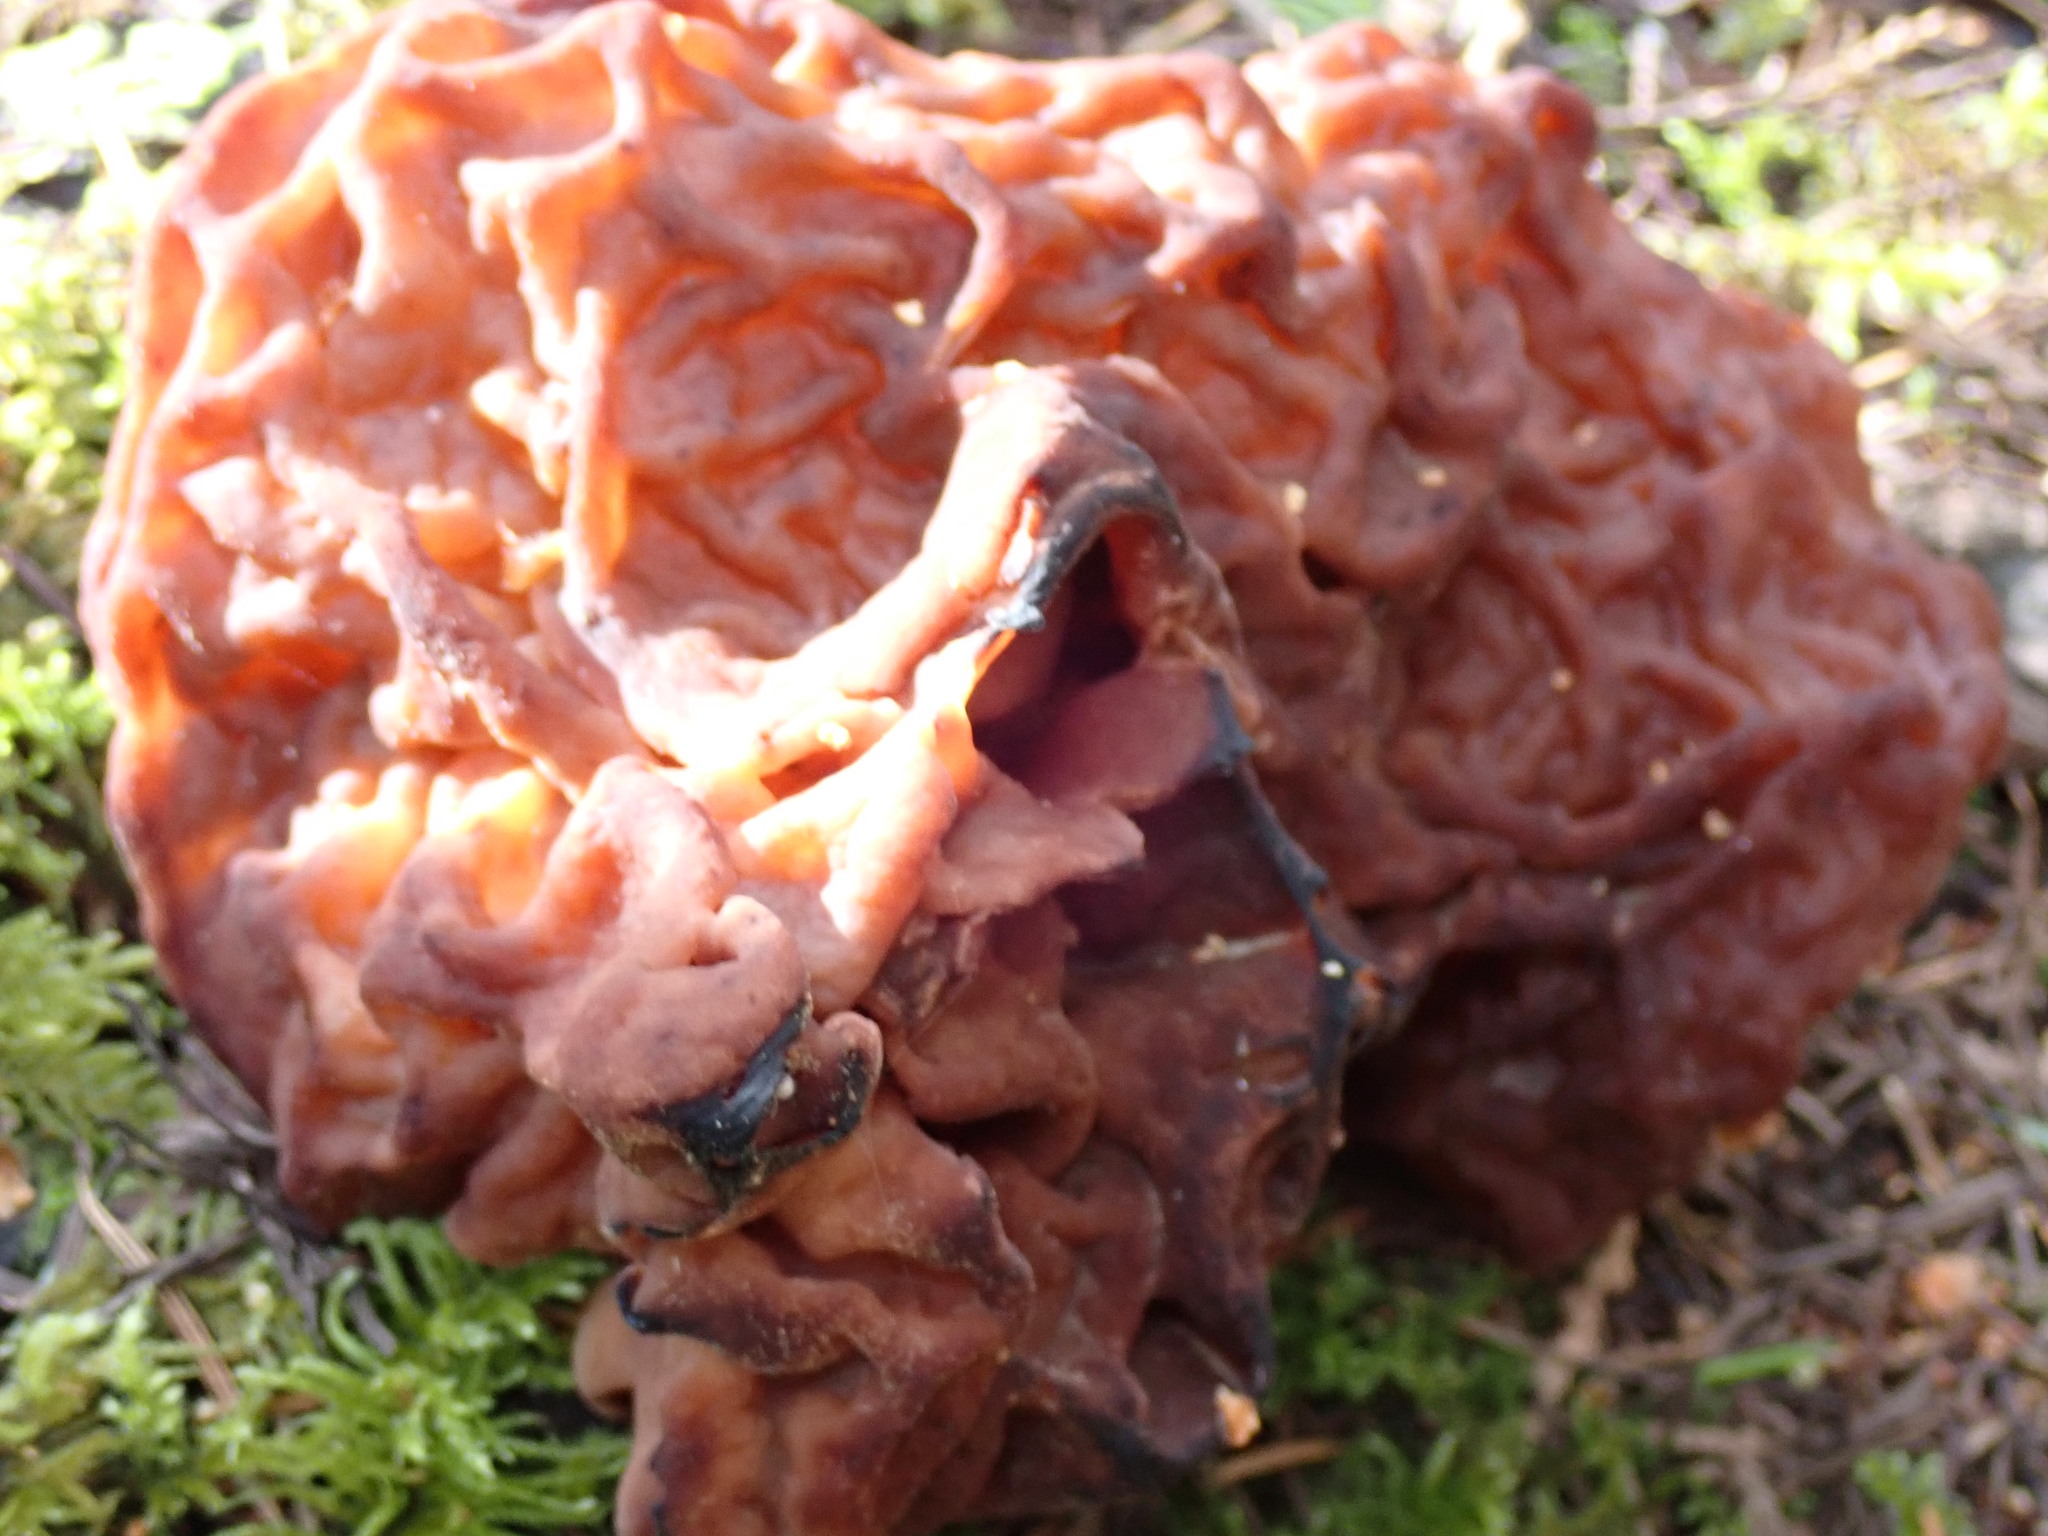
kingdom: Fungi
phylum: Ascomycota
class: Pezizomycetes
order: Pezizales
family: Discinaceae
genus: Gyromitra
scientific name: Gyromitra esculenta
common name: False morel
